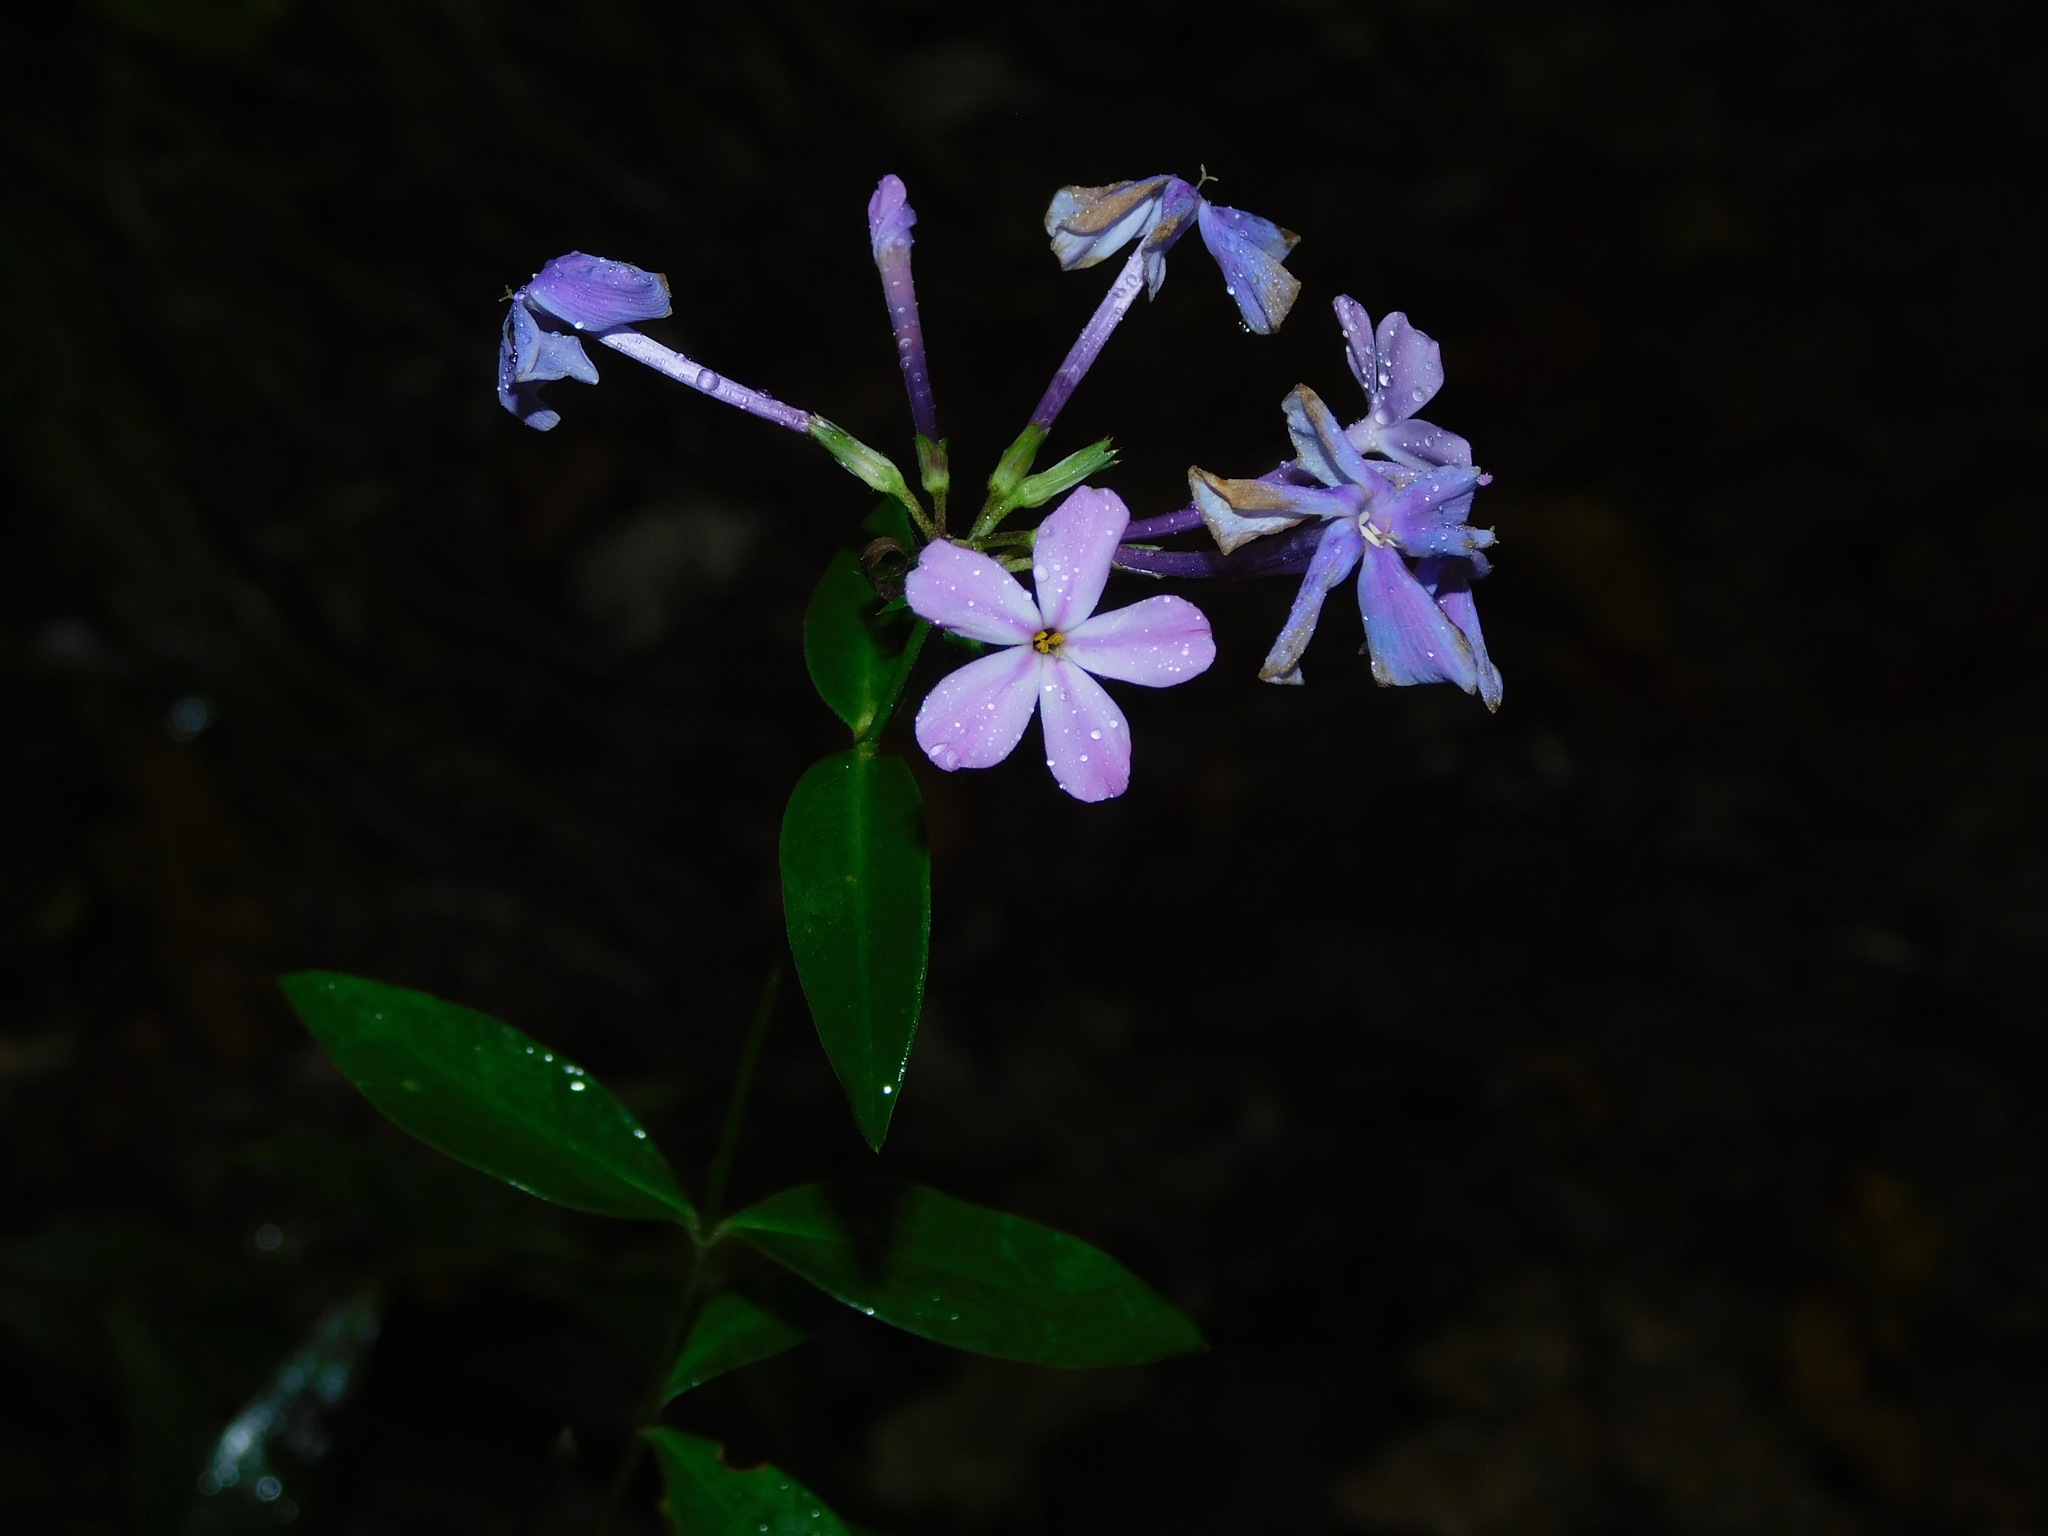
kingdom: Plantae
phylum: Tracheophyta
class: Magnoliopsida
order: Ericales
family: Polemoniaceae
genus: Phlox
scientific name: Phlox carolina
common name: Thick-leaf phlox
